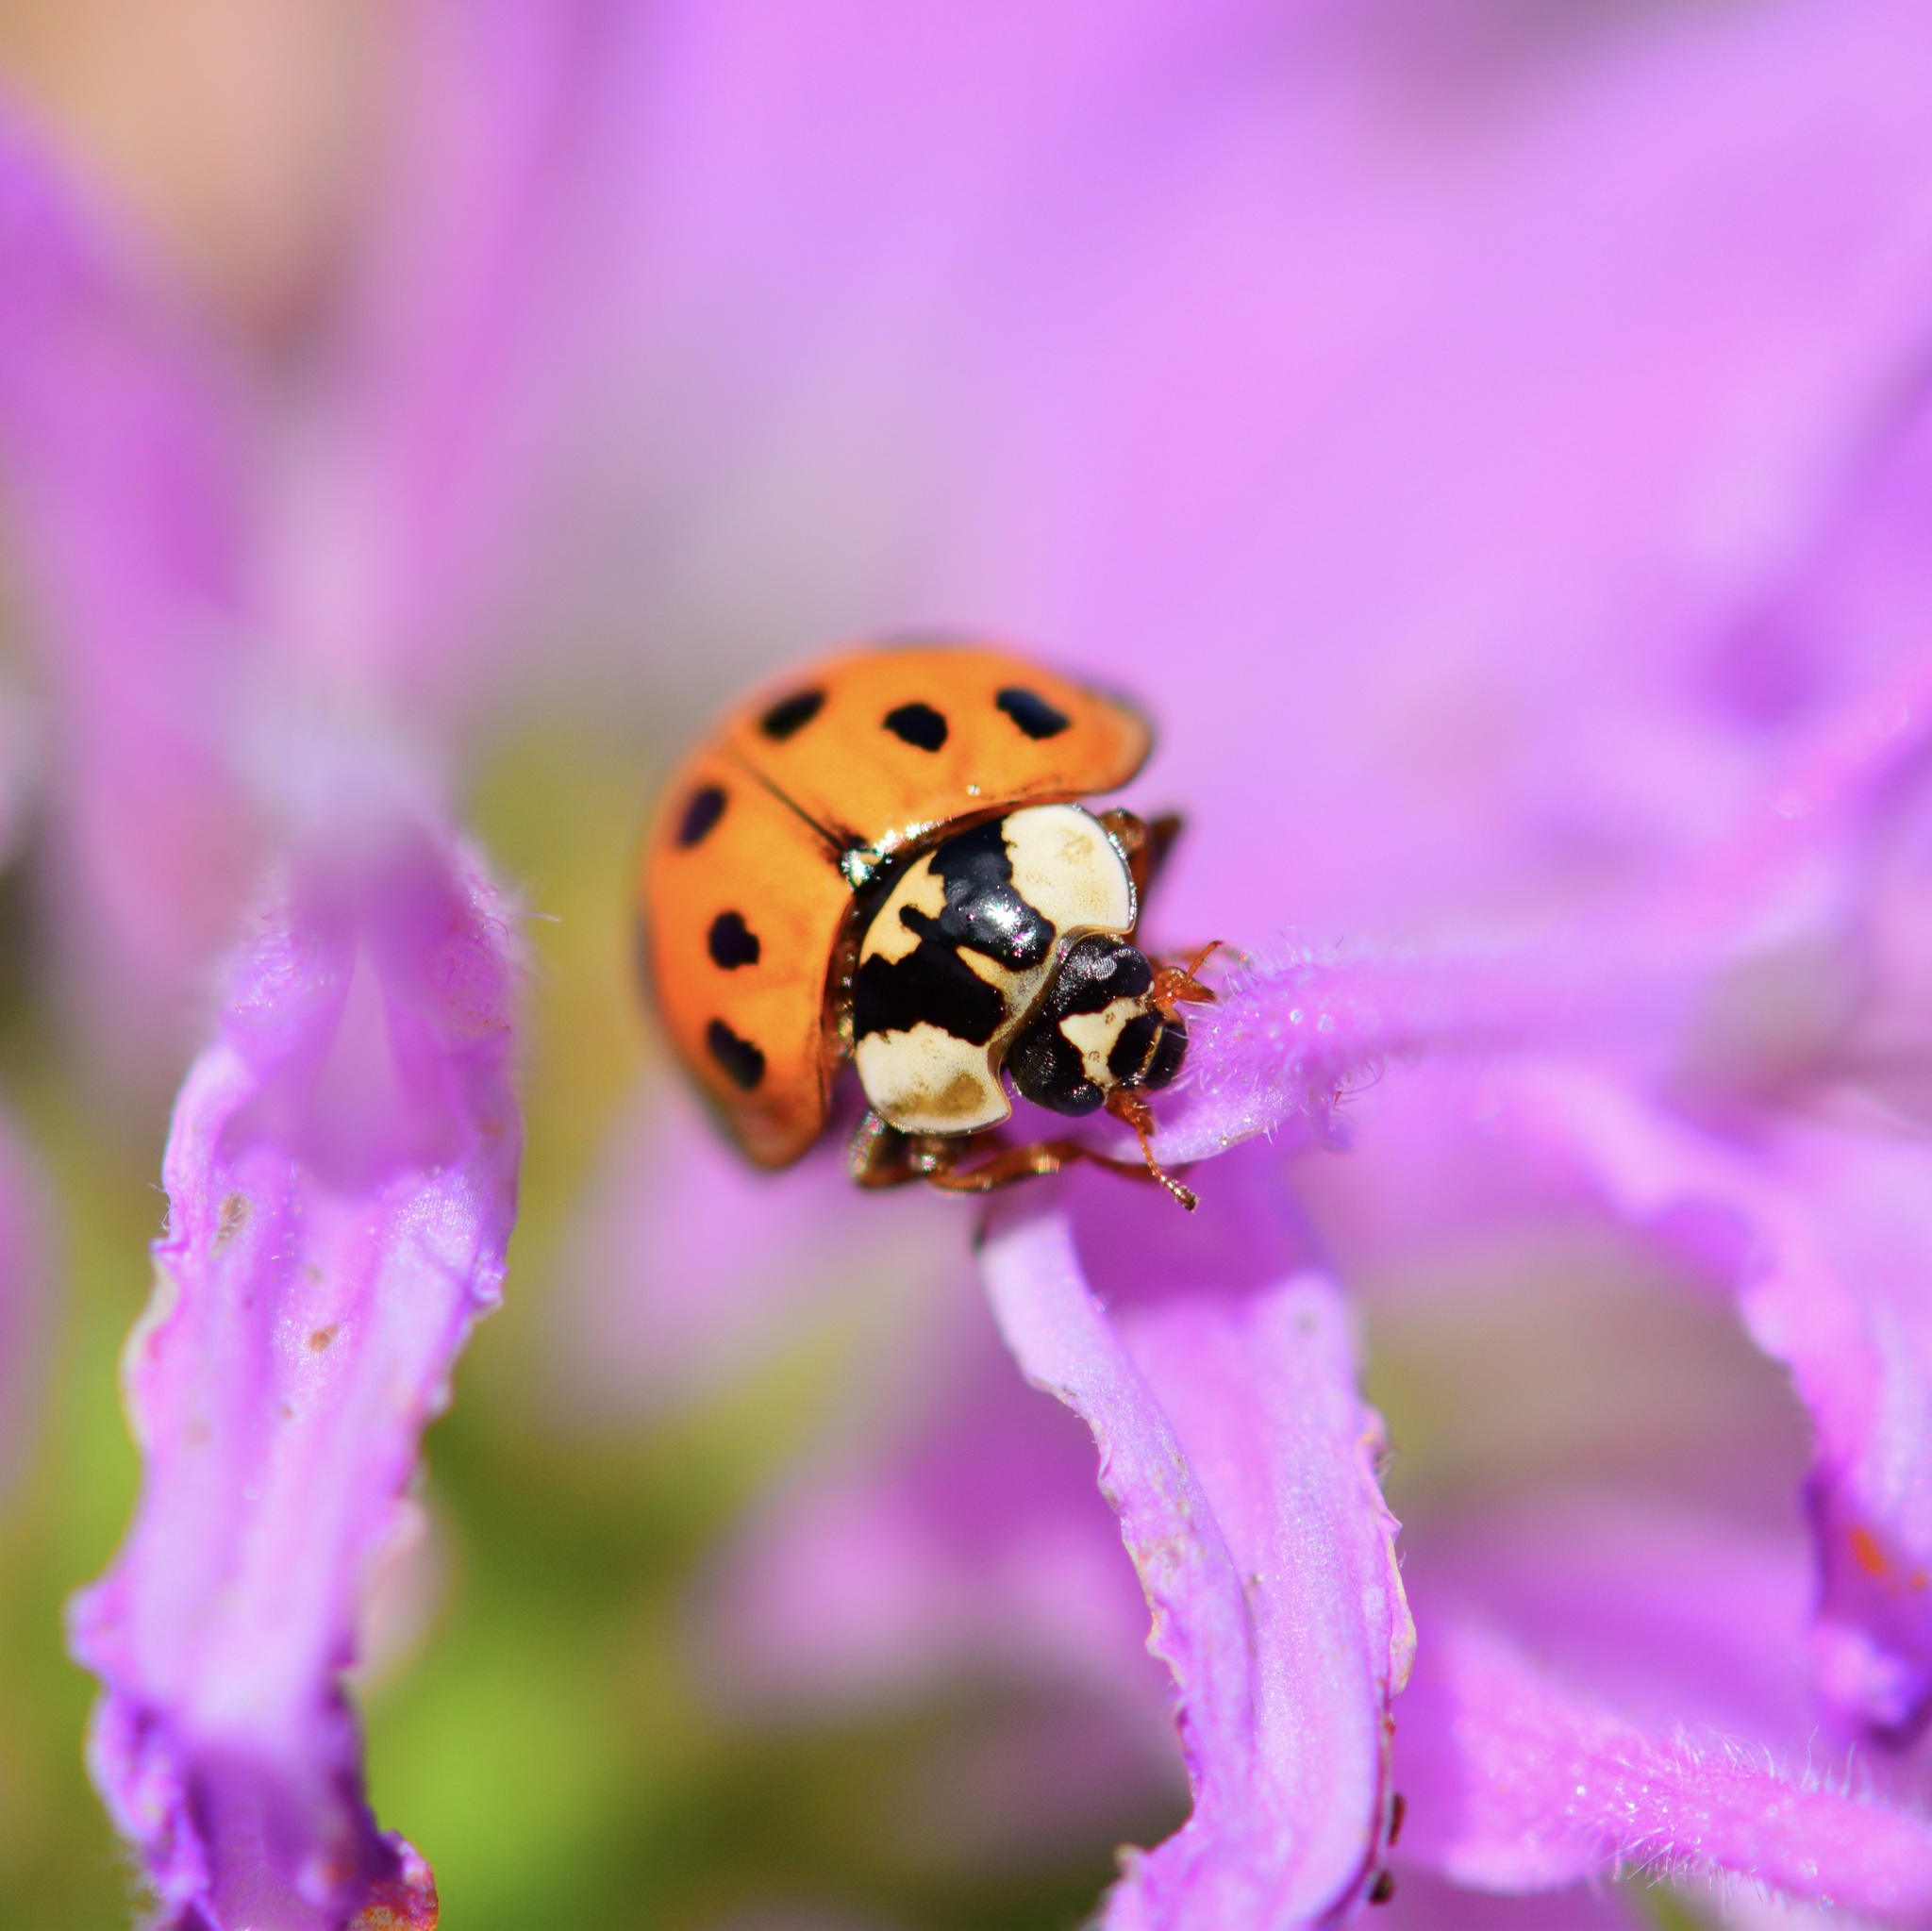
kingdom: Animalia
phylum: Arthropoda
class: Insecta
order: Coleoptera
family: Coccinellidae
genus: Harmonia
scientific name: Harmonia axyridis
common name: Harlequin ladybird
